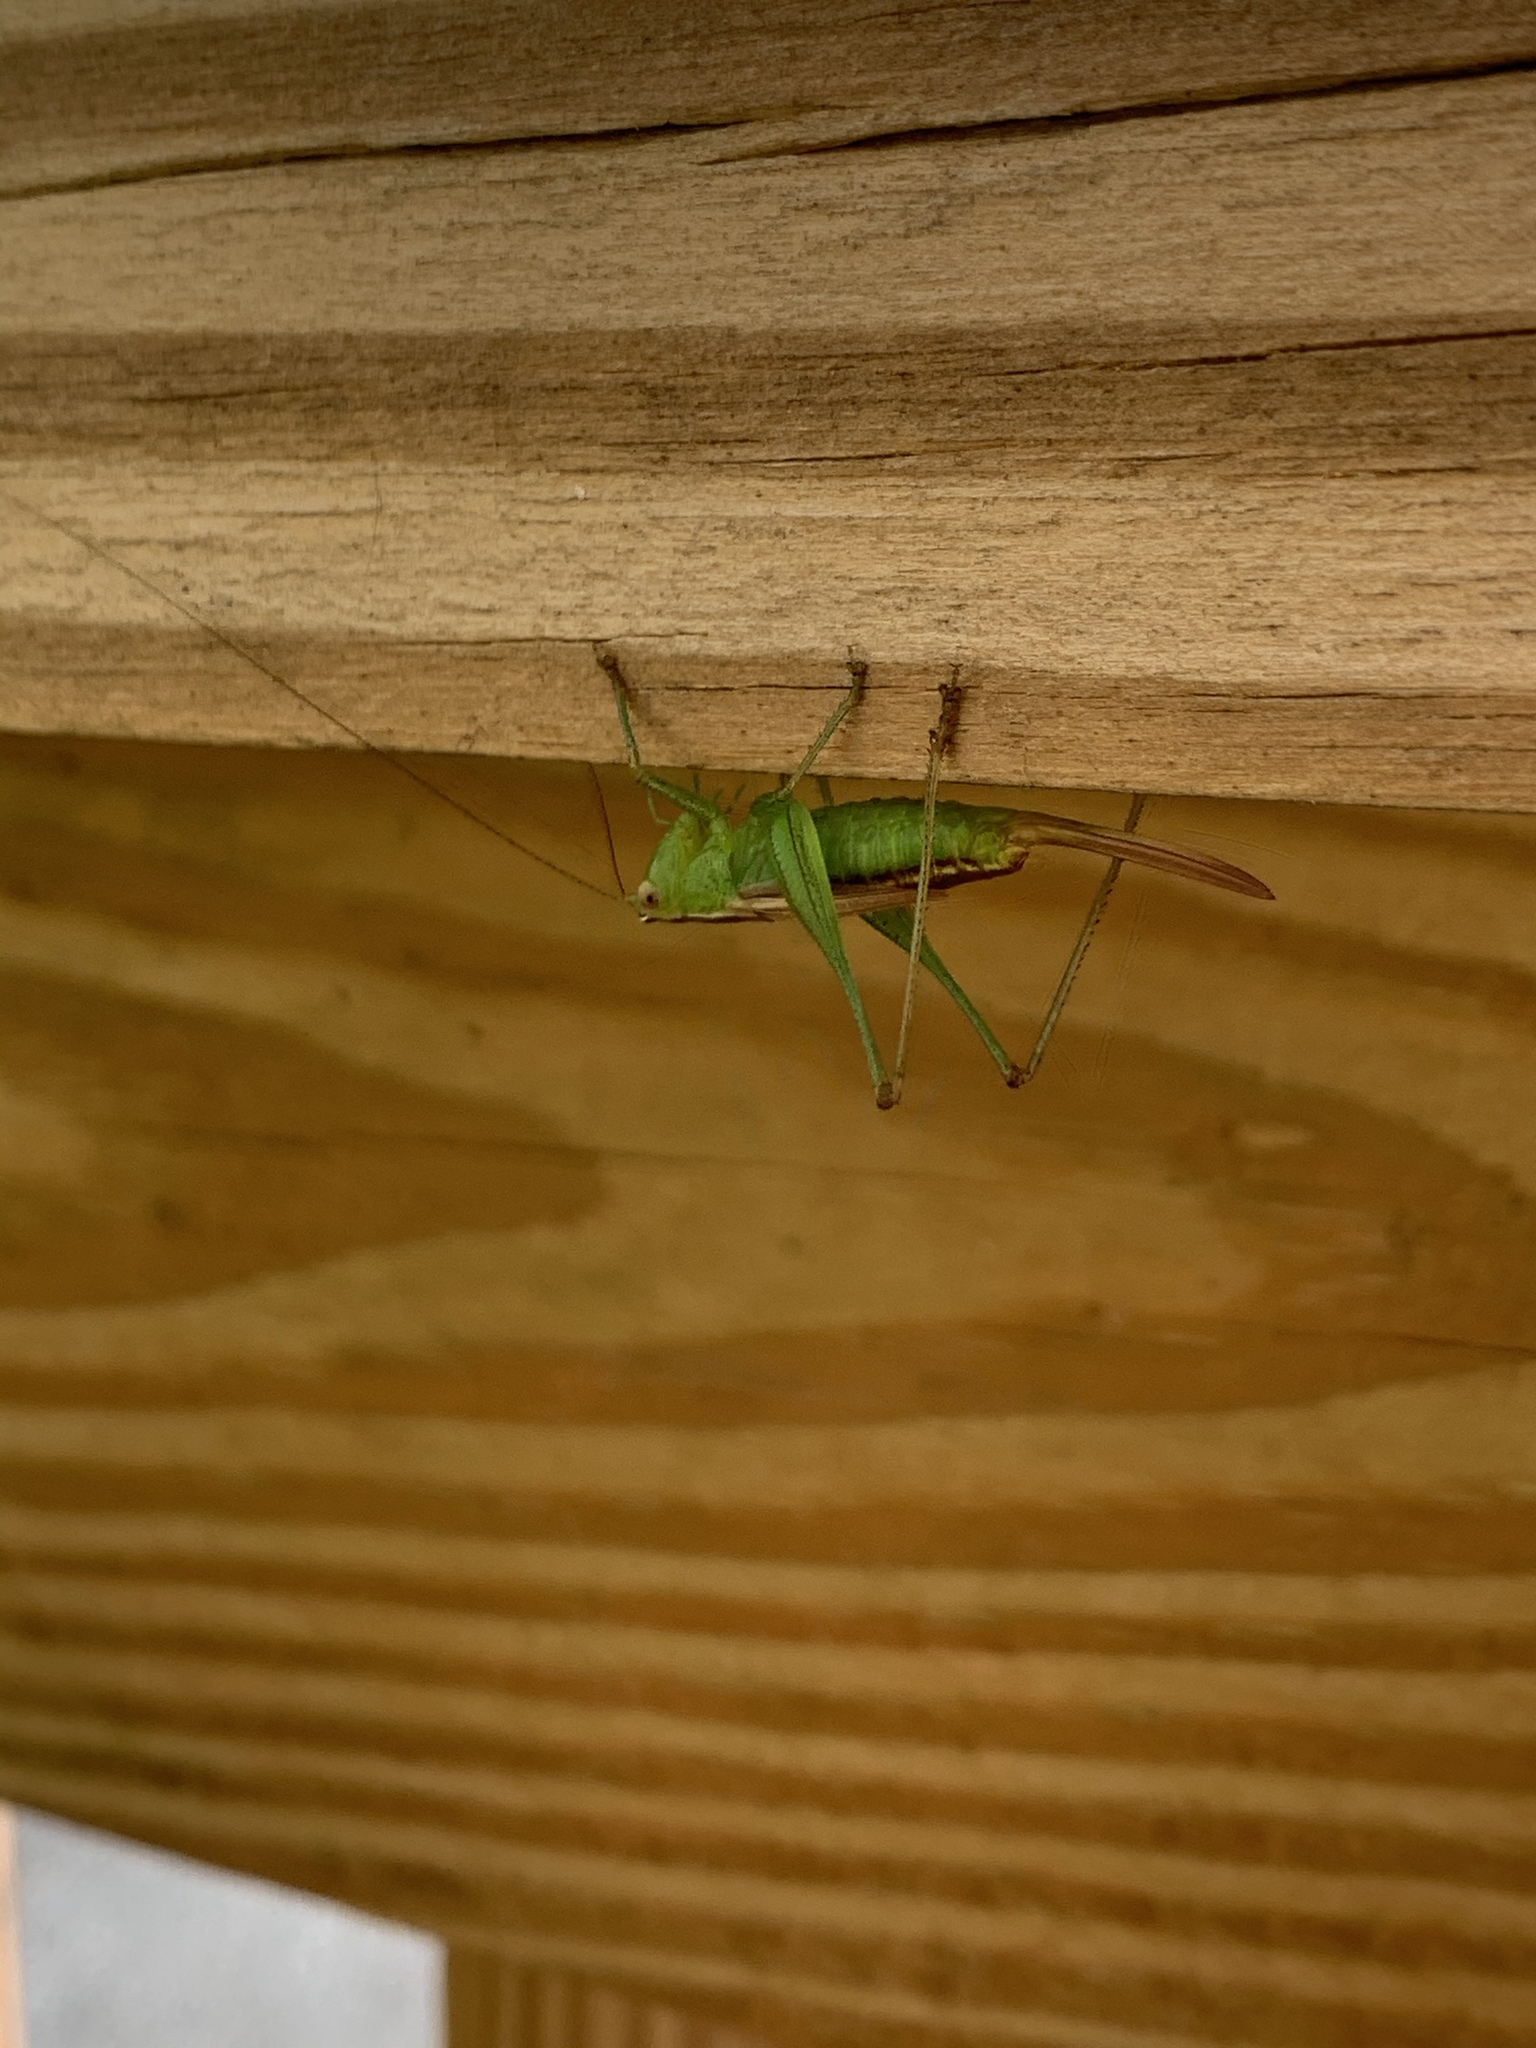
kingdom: Animalia
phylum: Arthropoda
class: Insecta
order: Orthoptera
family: Tettigoniidae
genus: Conocephalus
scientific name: Conocephalus brevipennis
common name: Short-winged meadow katydid
